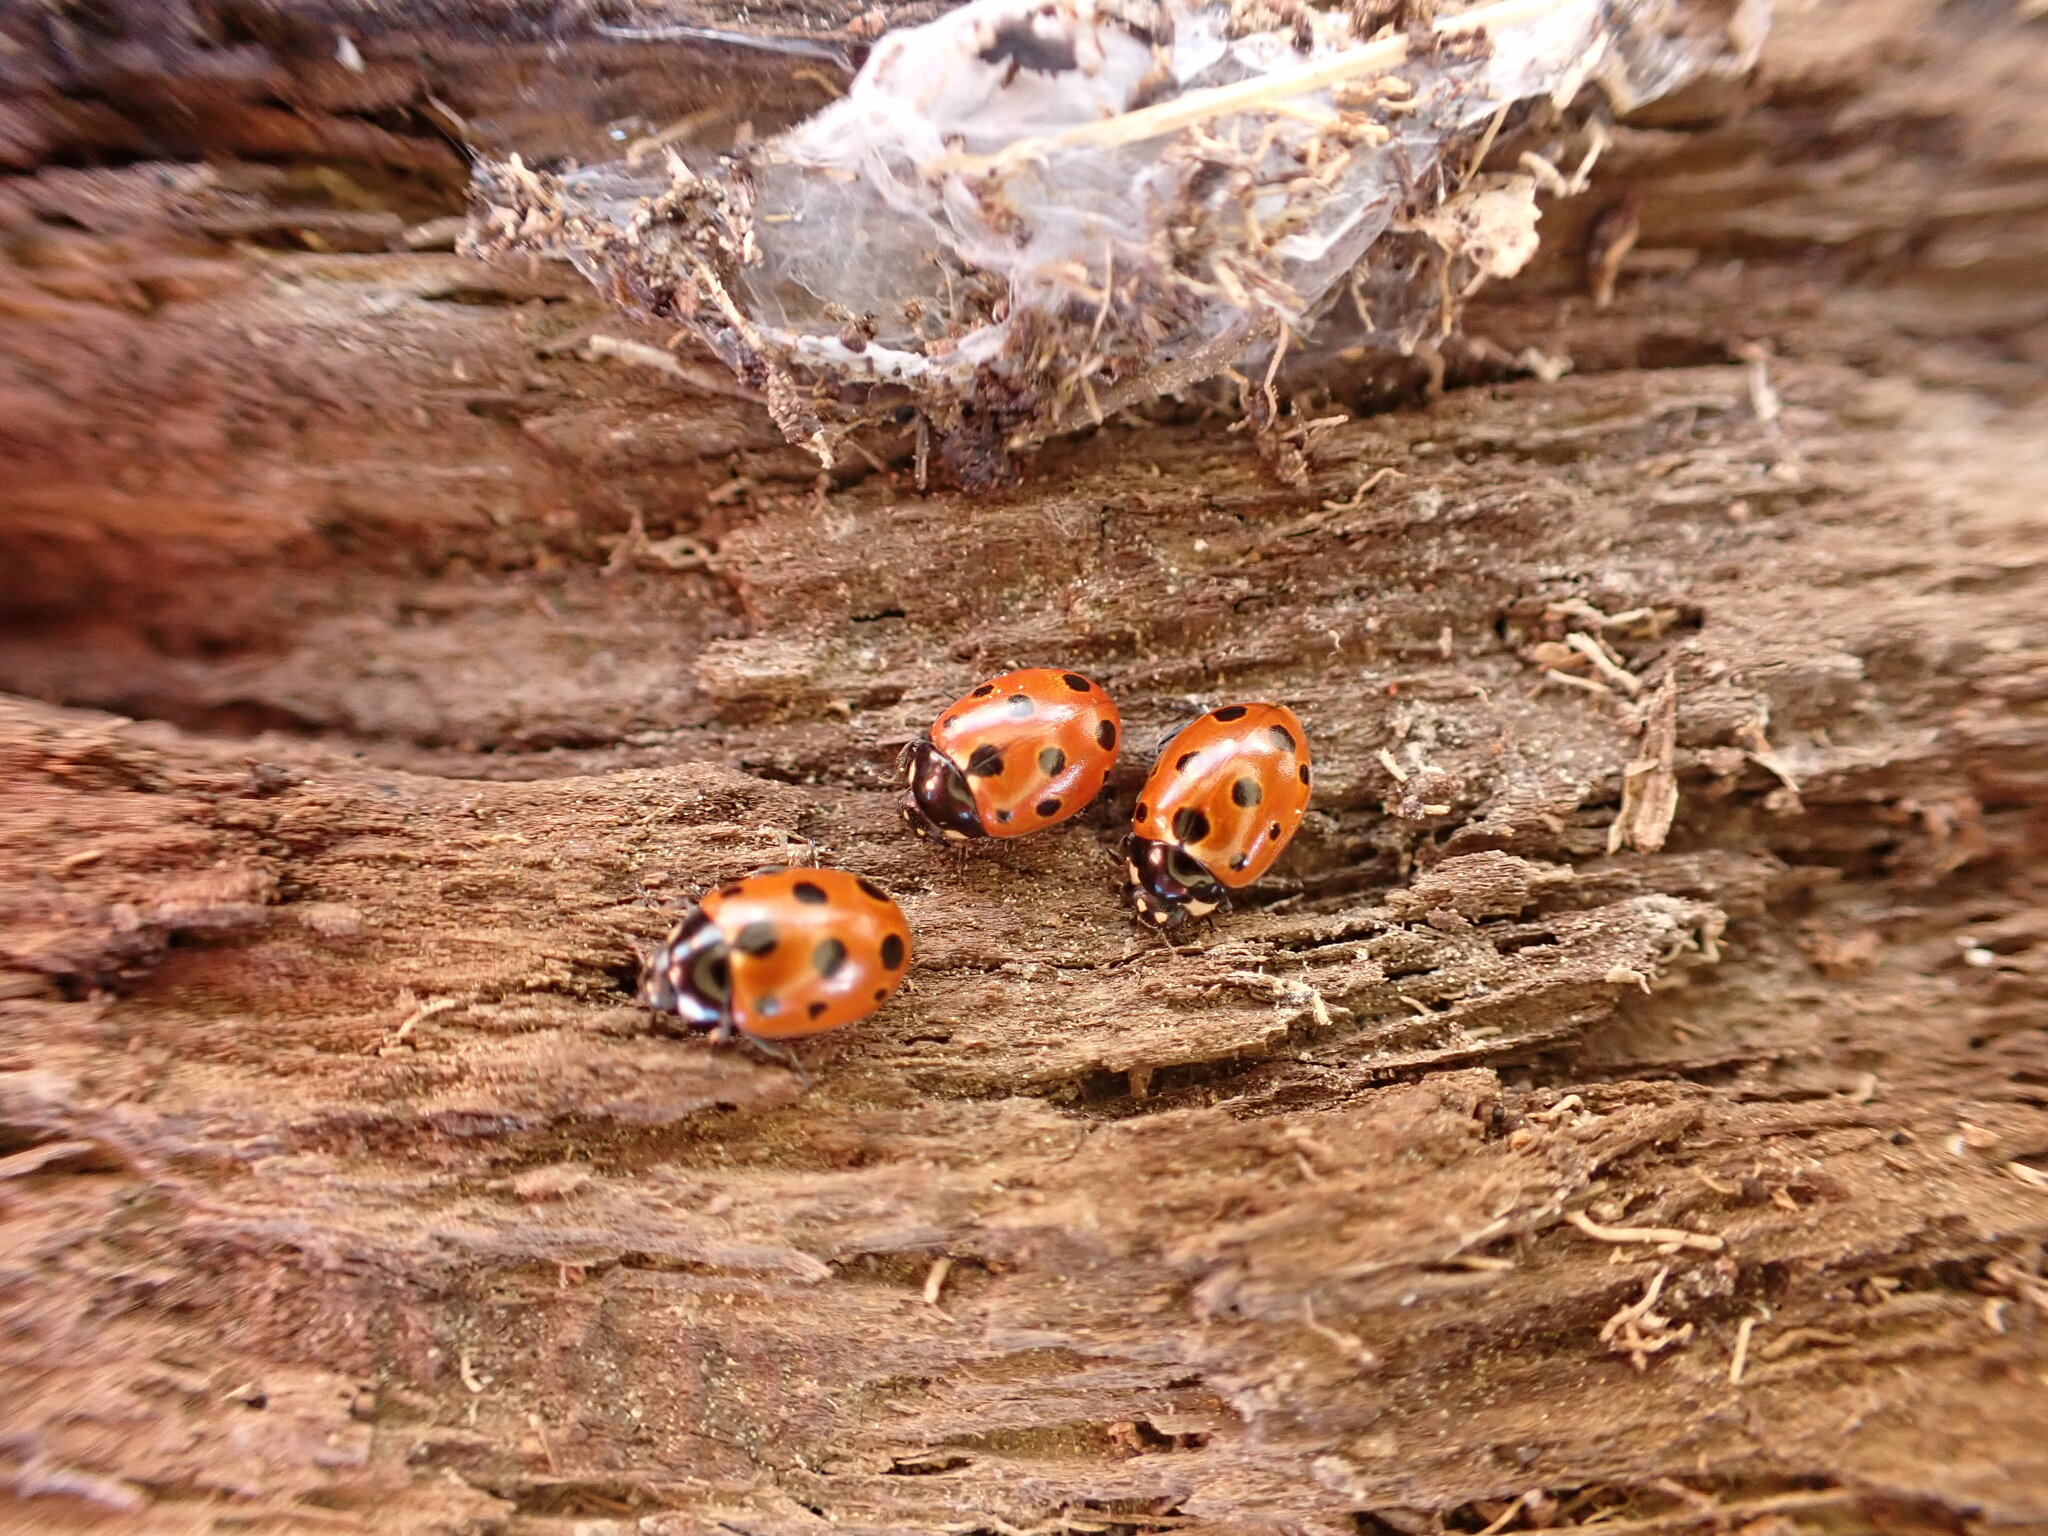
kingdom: Animalia
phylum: Arthropoda
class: Insecta
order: Coleoptera
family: Coccinellidae
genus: Coccinella
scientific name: Coccinella undecimpunctata
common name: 11-spot ladybird
